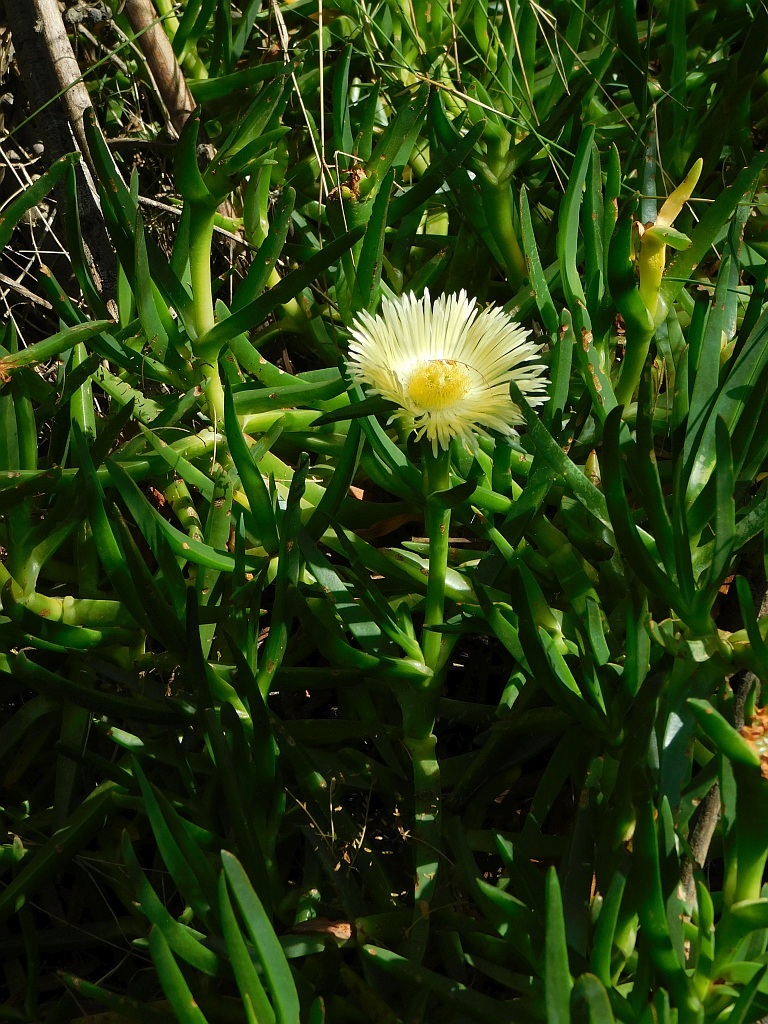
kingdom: Plantae
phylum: Tracheophyta
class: Magnoliopsida
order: Caryophyllales
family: Aizoaceae
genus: Carpobrotus
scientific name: Carpobrotus edulis
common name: Hottentot-fig
